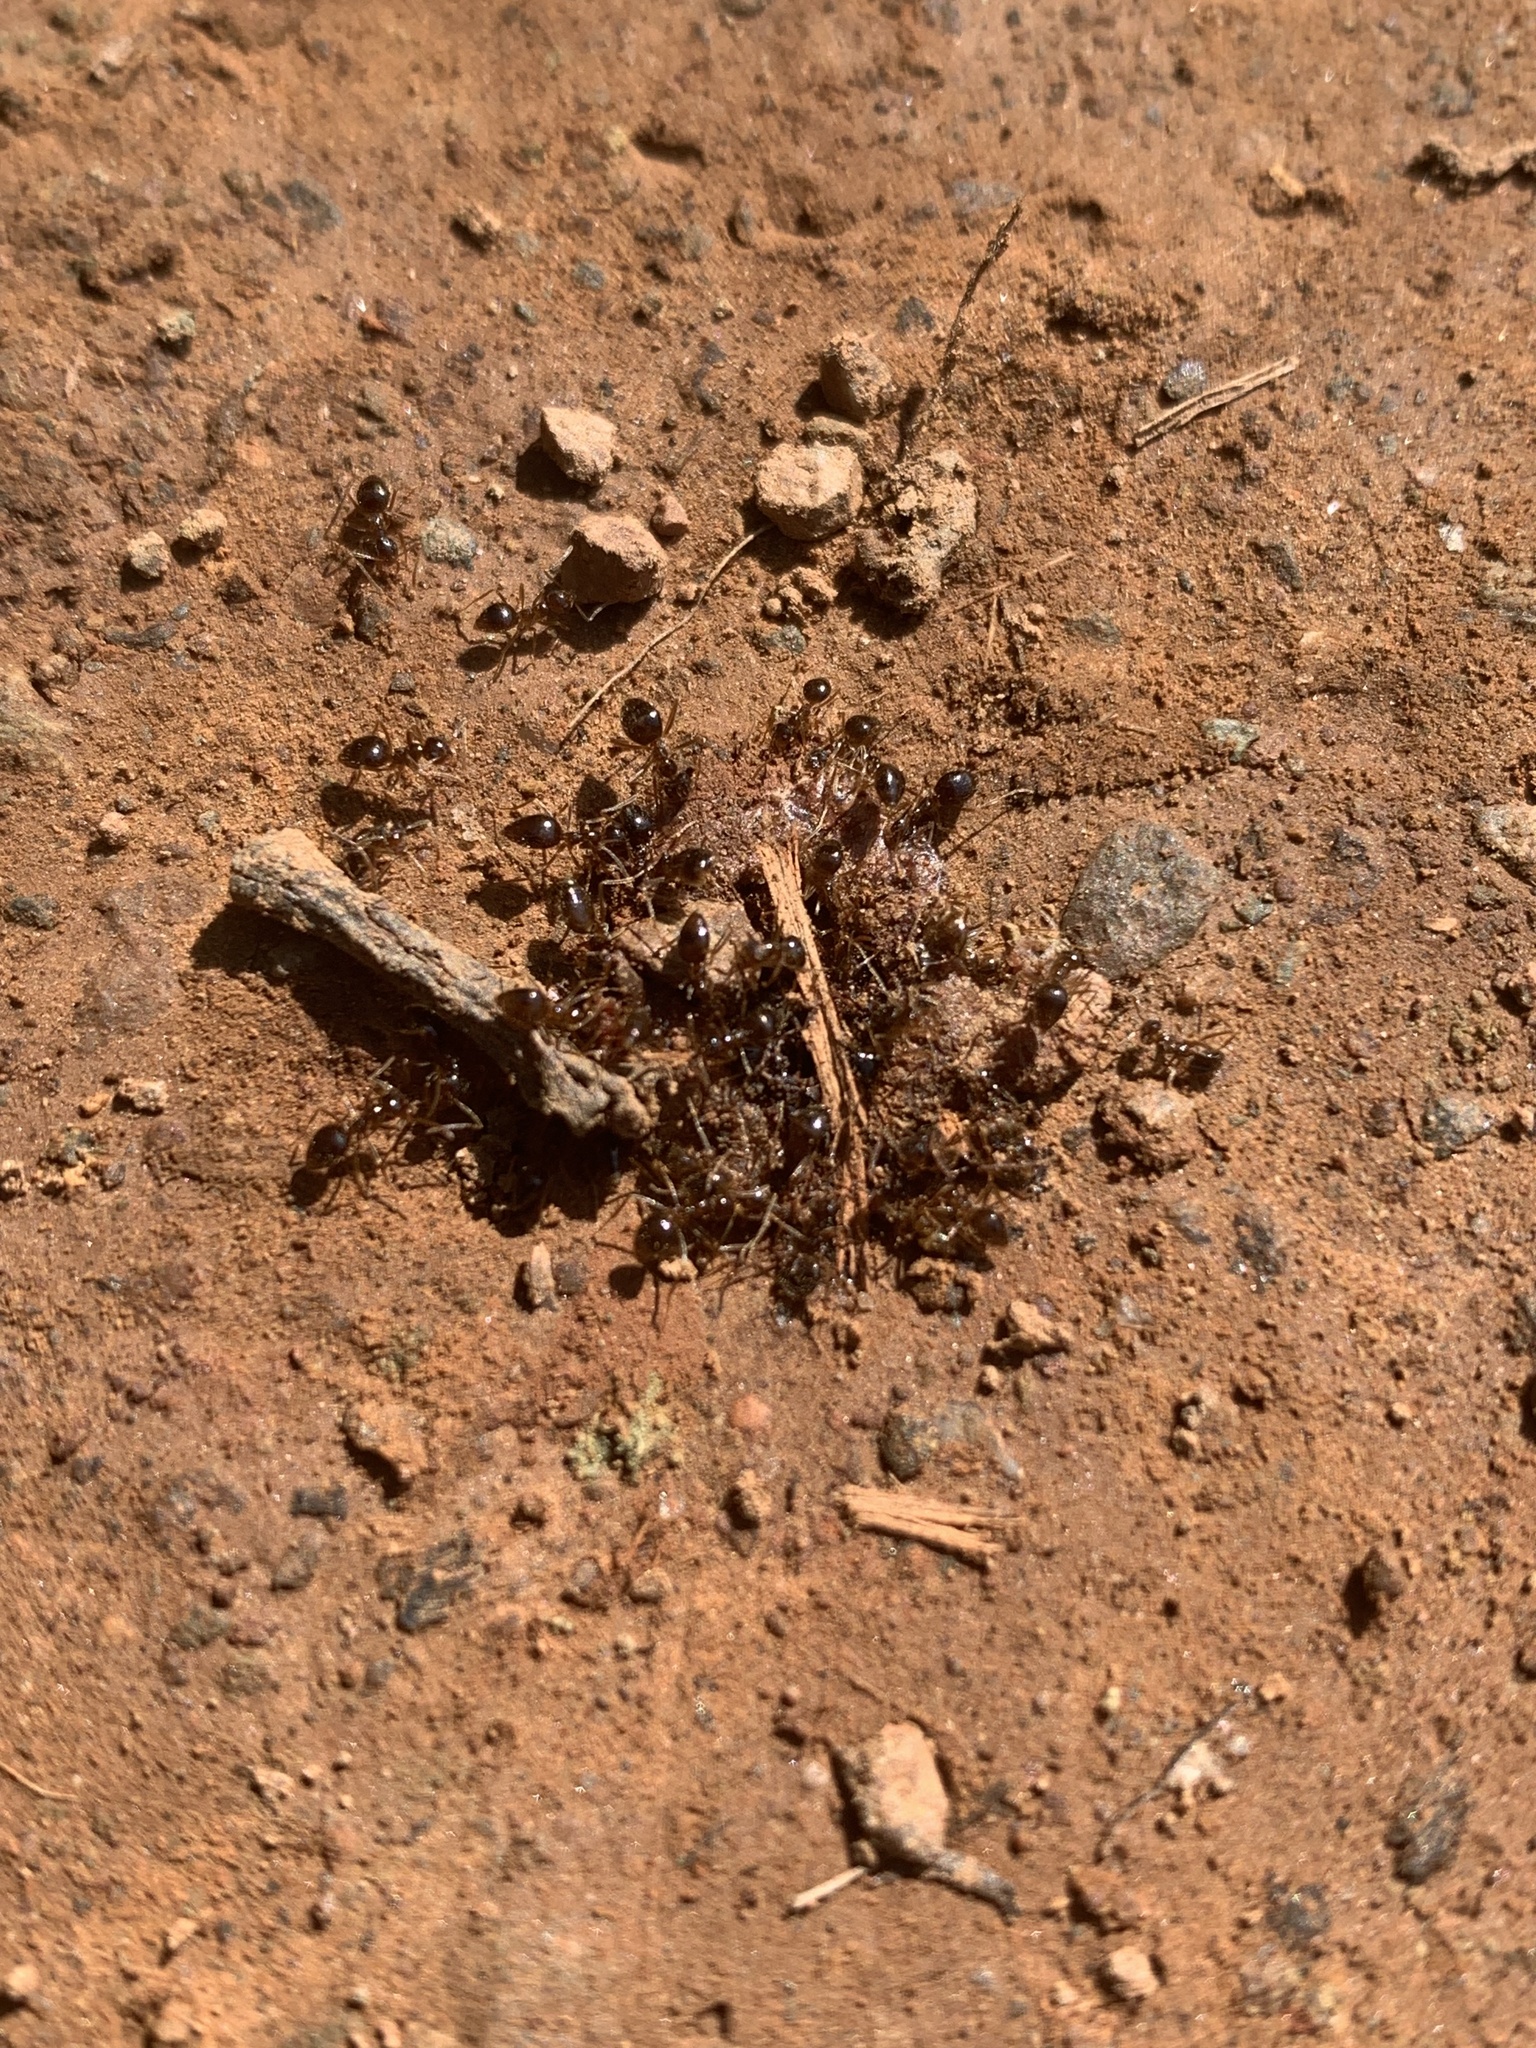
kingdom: Animalia
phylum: Arthropoda
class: Insecta
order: Hymenoptera
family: Formicidae
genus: Prenolepis
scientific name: Prenolepis imparis
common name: Small honey ant
